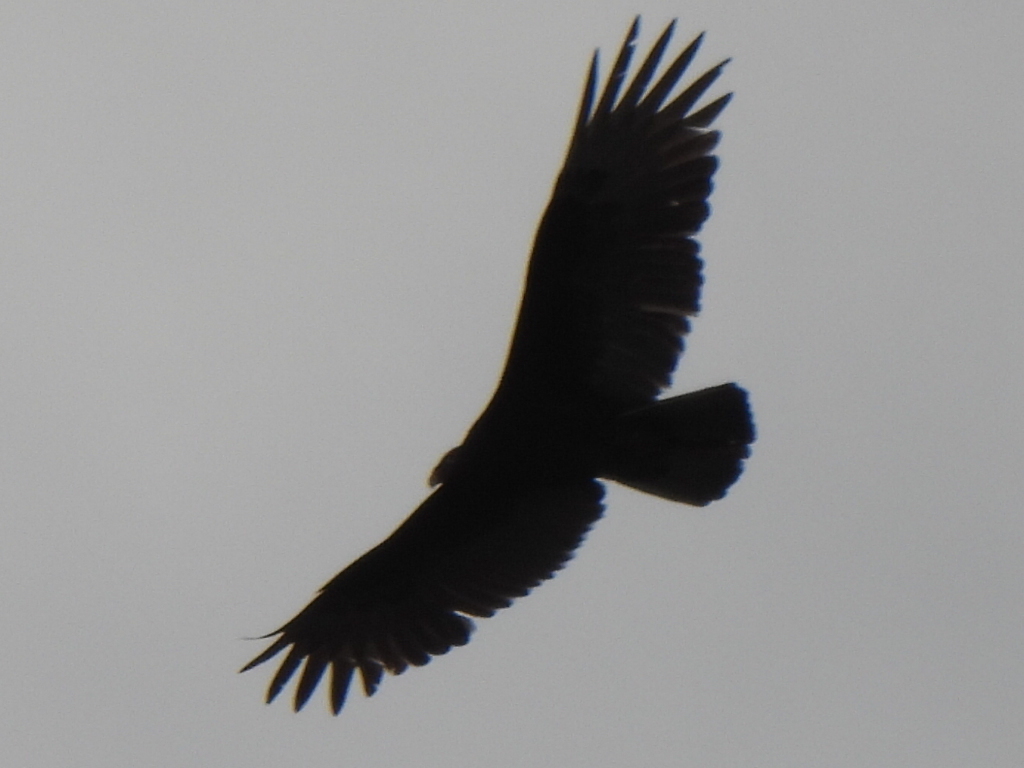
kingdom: Animalia
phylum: Chordata
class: Aves
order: Accipitriformes
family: Cathartidae
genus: Cathartes
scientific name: Cathartes aura
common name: Turkey vulture
